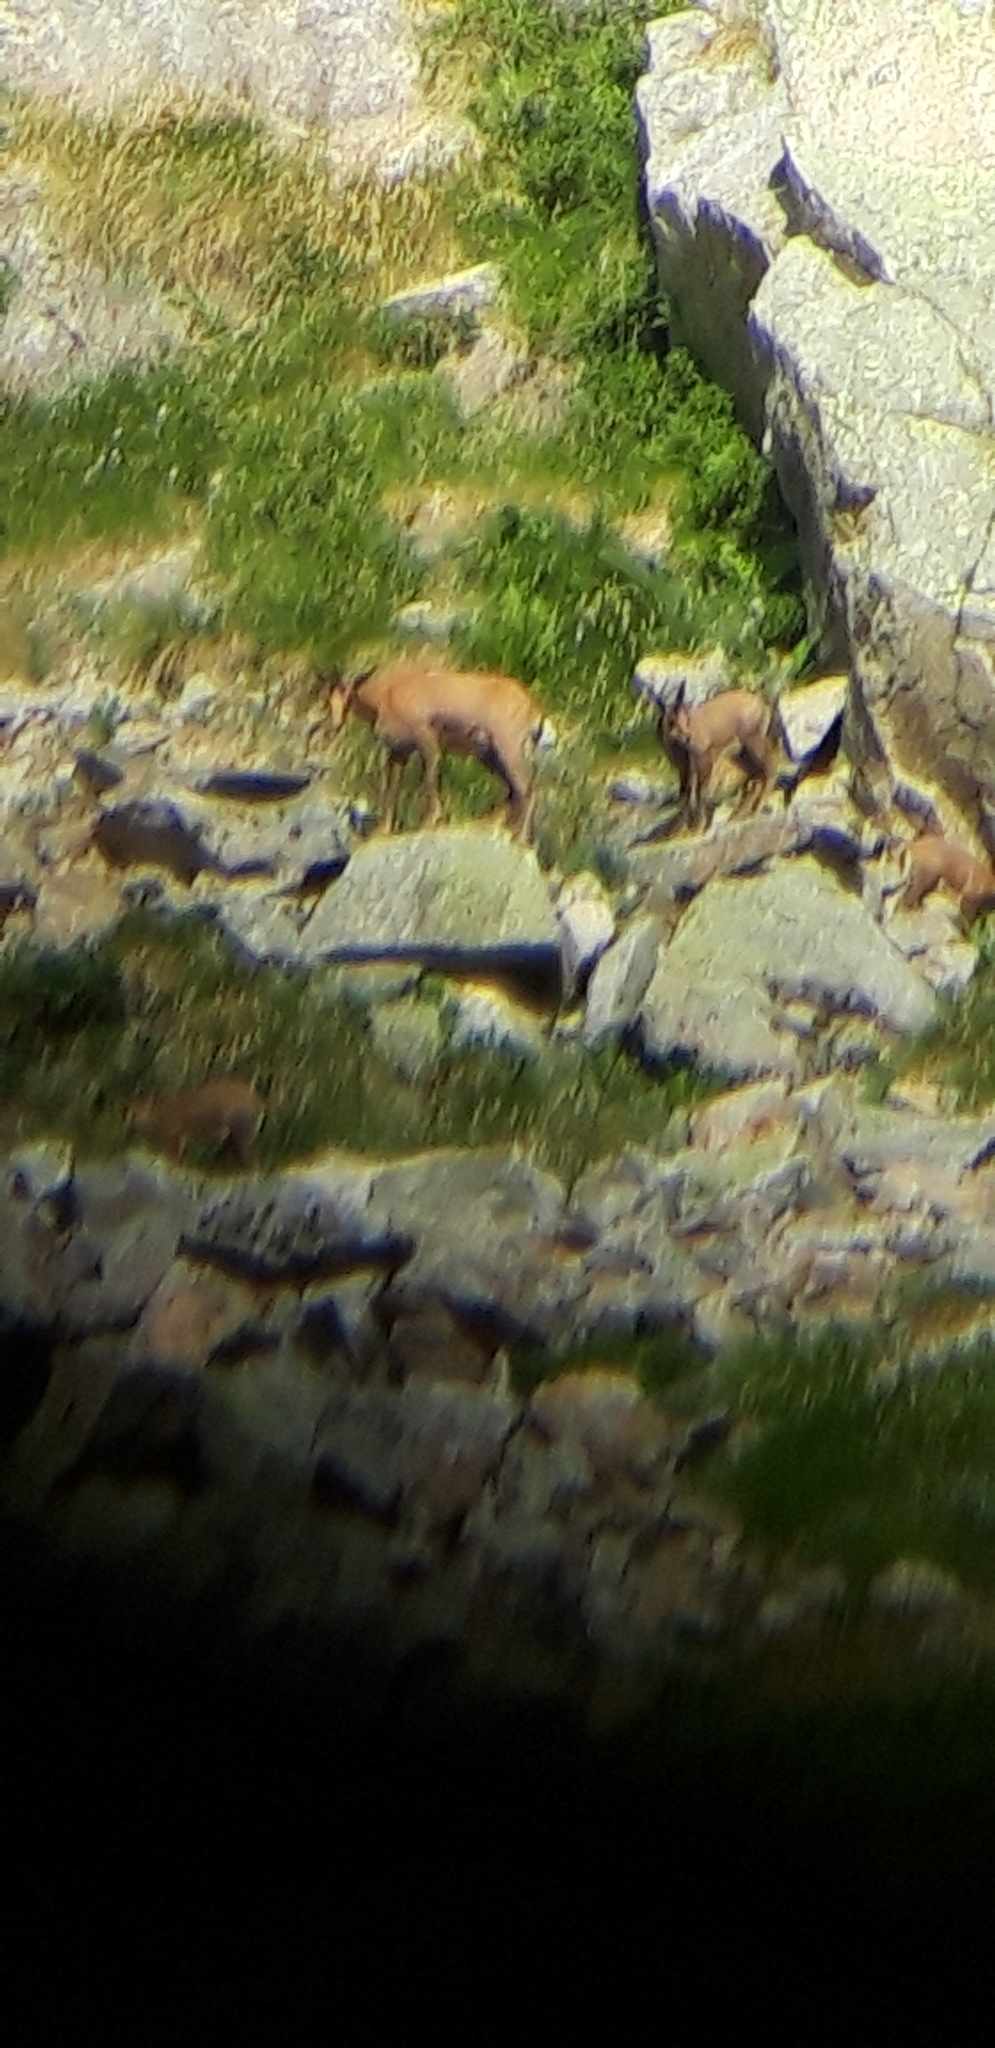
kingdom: Animalia
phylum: Chordata
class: Mammalia
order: Artiodactyla
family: Bovidae
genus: Rupicapra
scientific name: Rupicapra pyrenaica
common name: Pyrenean chamois
